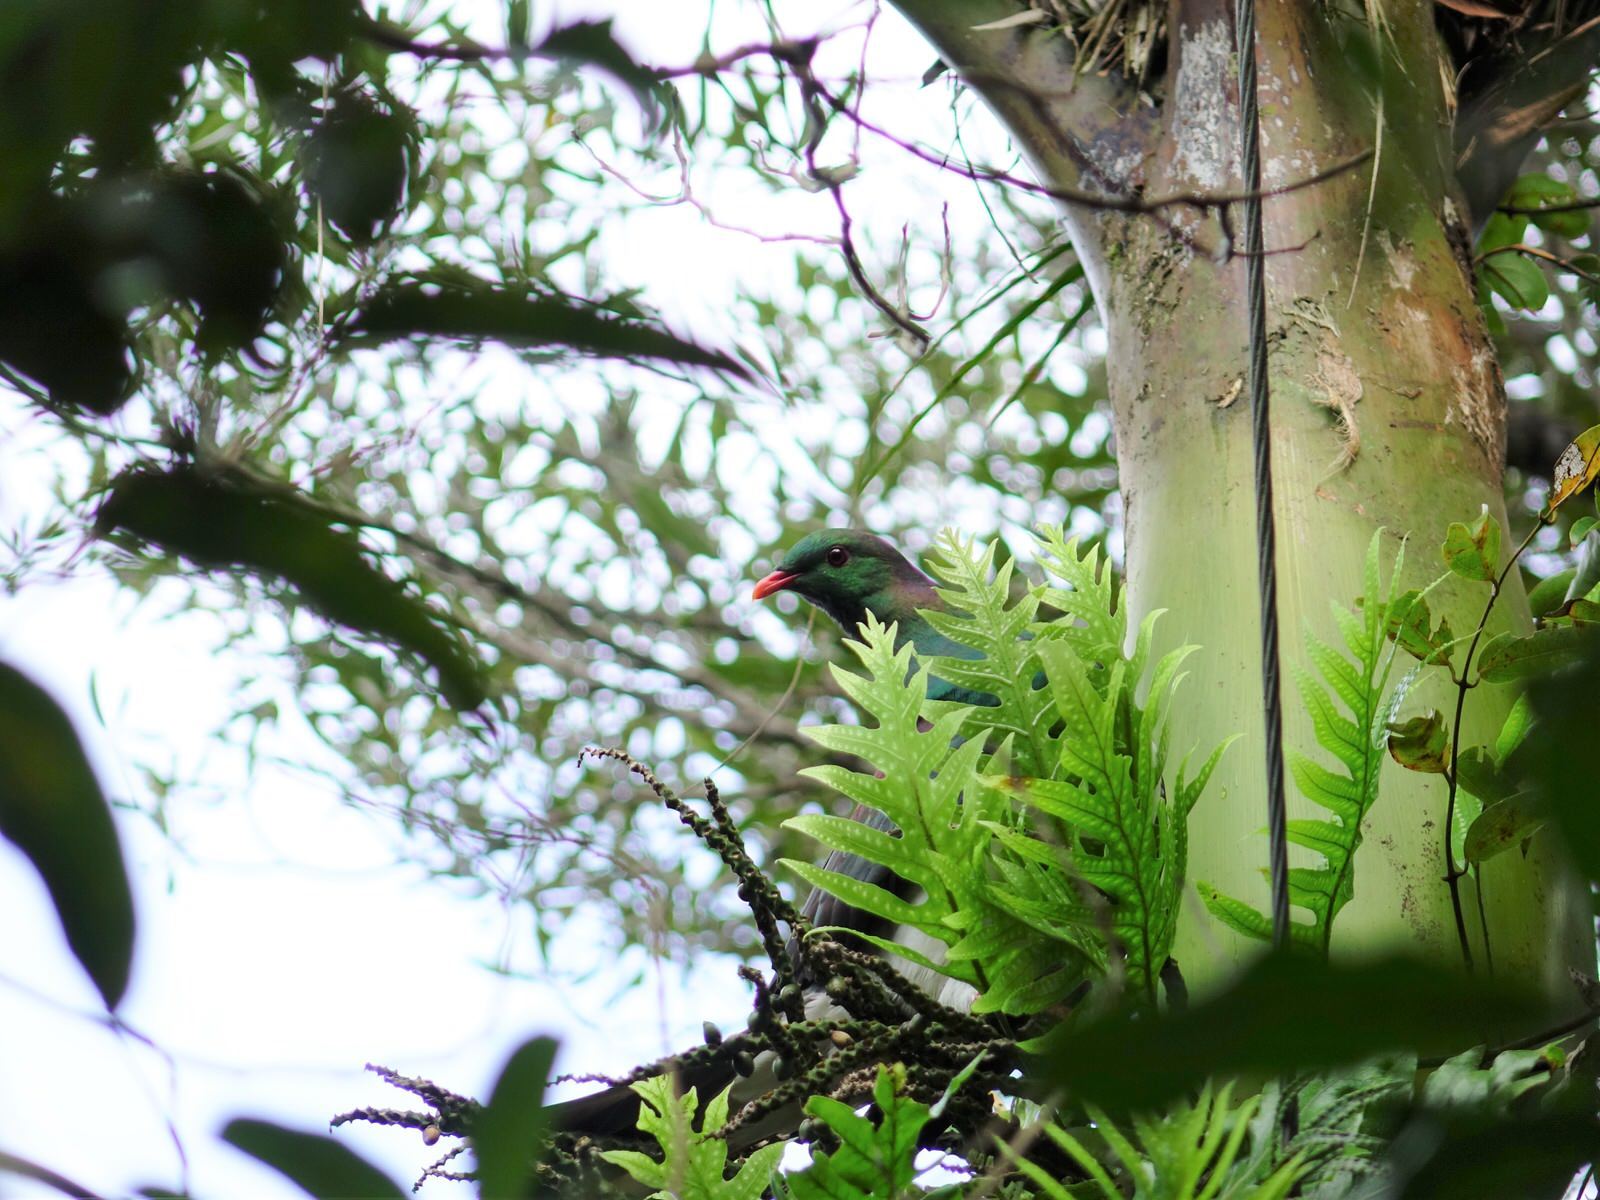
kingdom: Animalia
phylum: Chordata
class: Aves
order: Columbiformes
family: Columbidae
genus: Hemiphaga
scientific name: Hemiphaga novaeseelandiae
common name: New zealand pigeon
